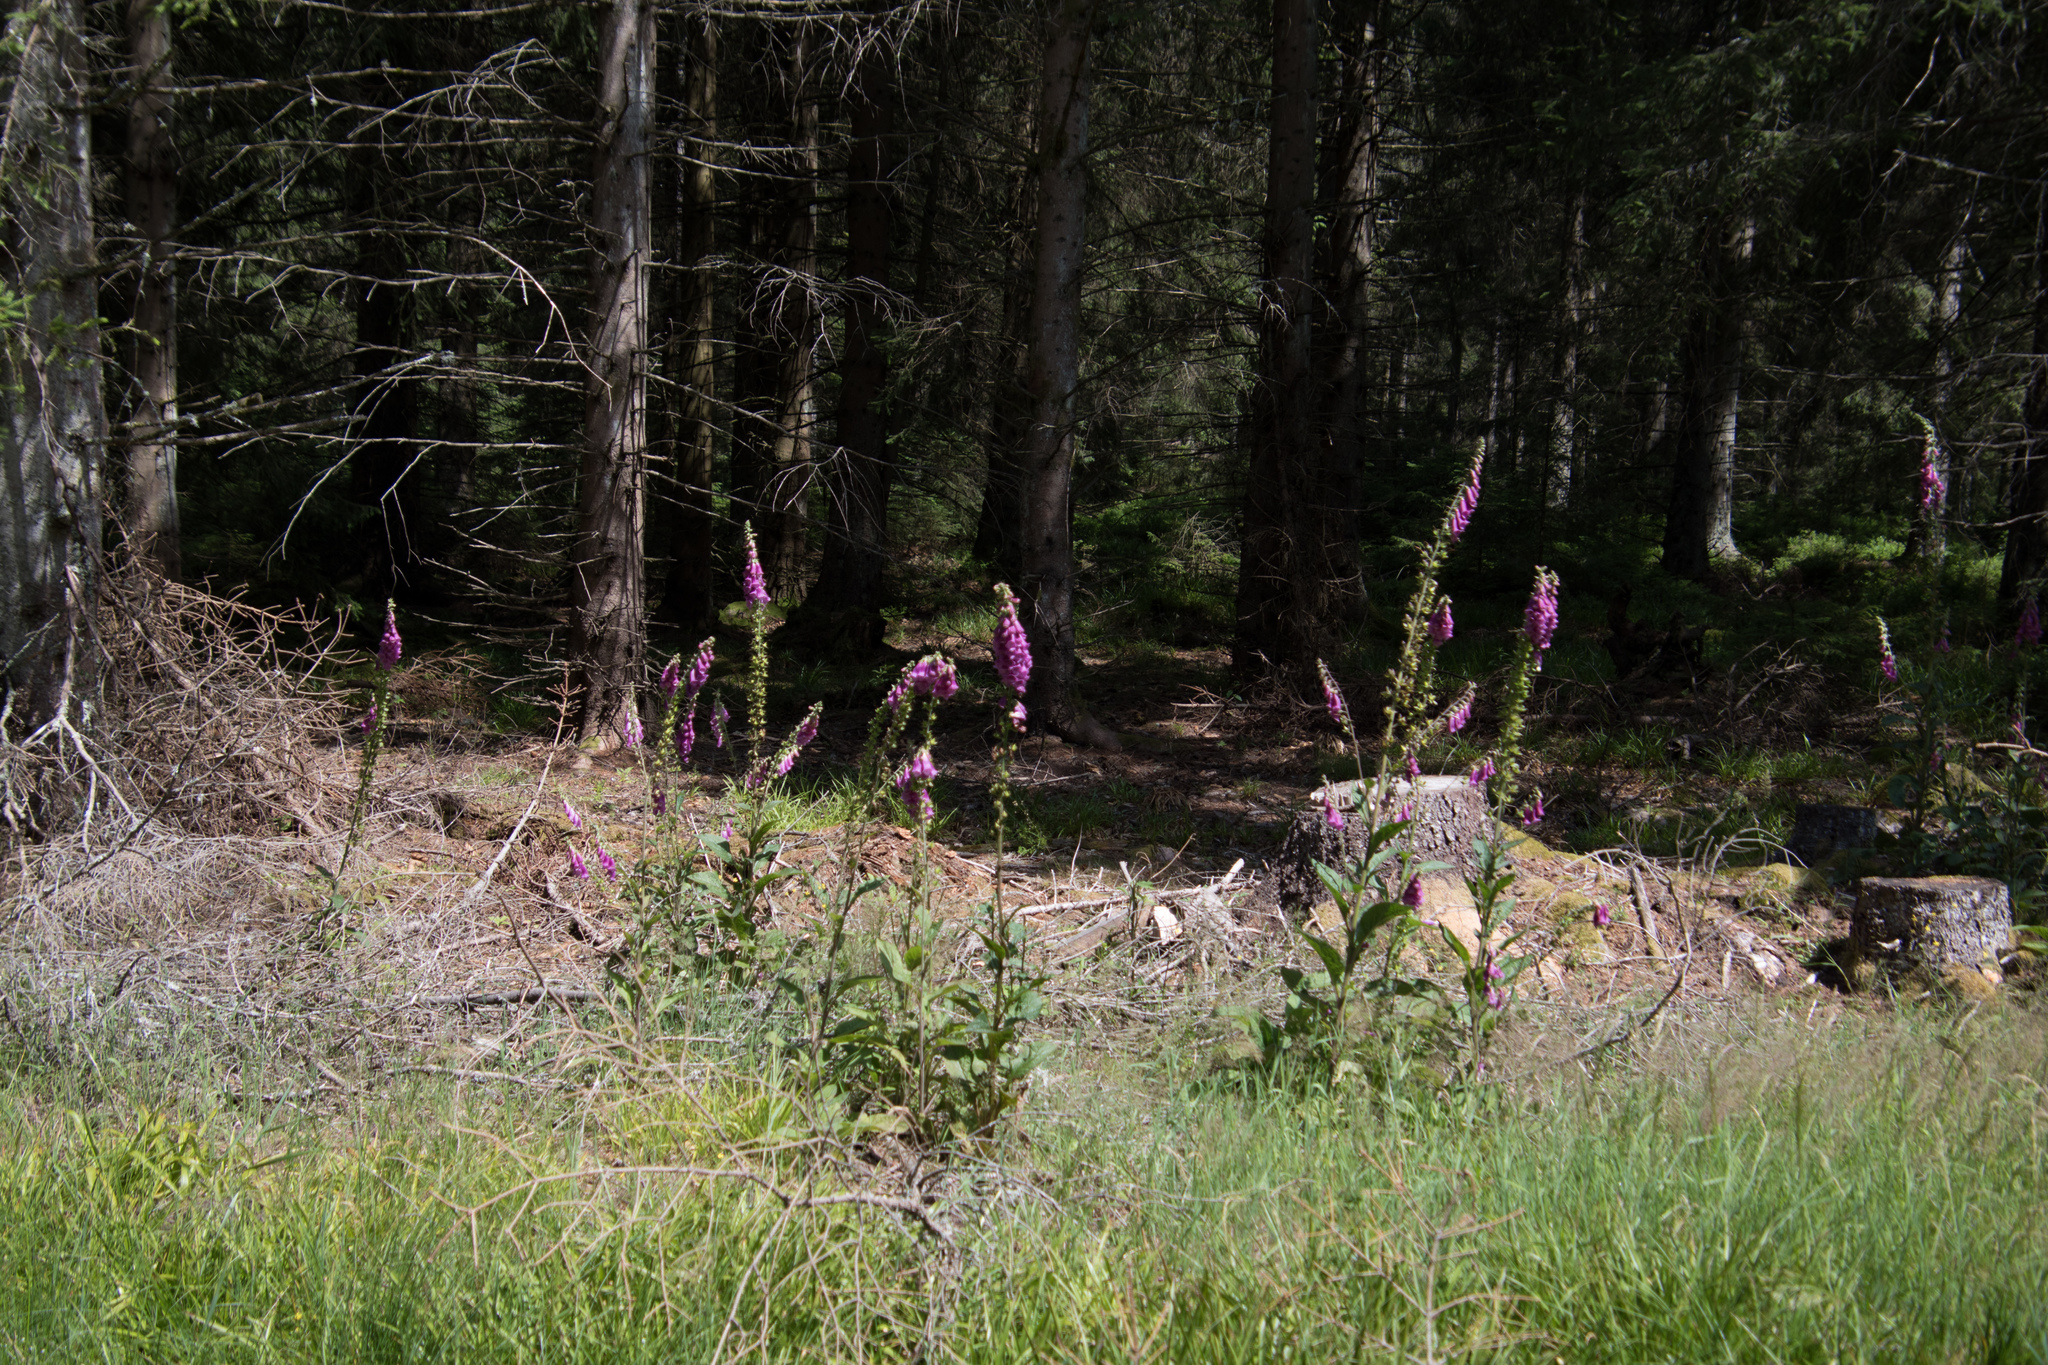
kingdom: Plantae
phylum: Tracheophyta
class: Magnoliopsida
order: Lamiales
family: Plantaginaceae
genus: Digitalis
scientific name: Digitalis purpurea
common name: Foxglove
